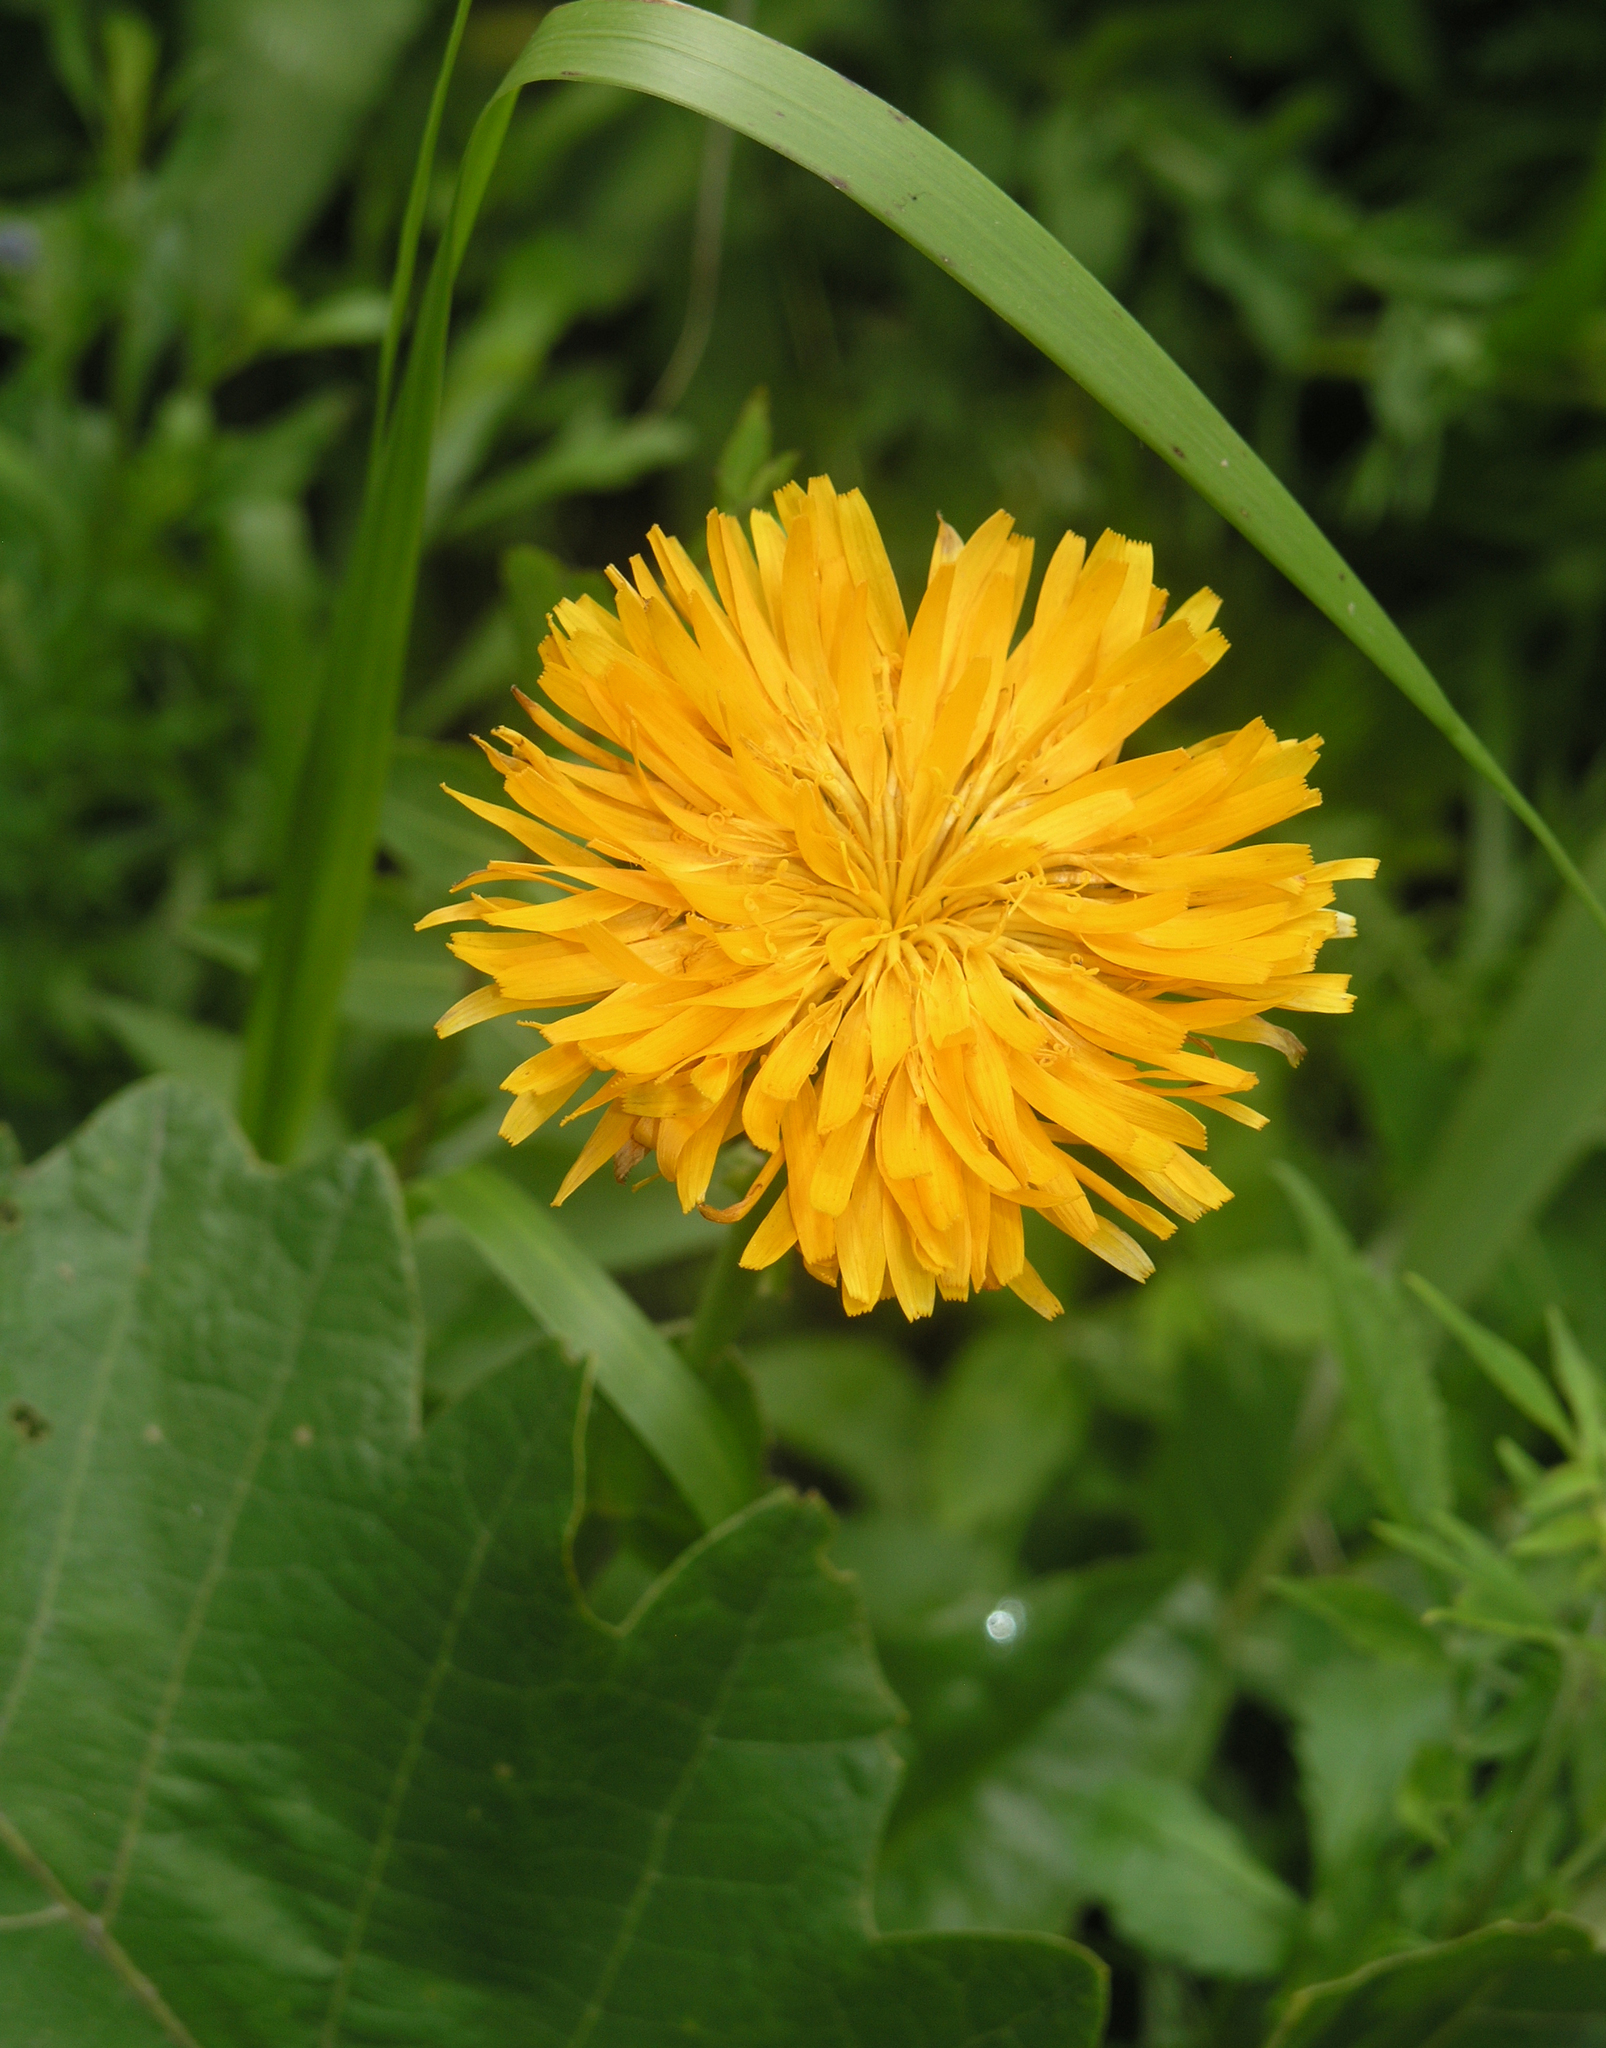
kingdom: Plantae
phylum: Tracheophyta
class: Magnoliopsida
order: Asterales
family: Asteraceae
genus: Trommsdorffia
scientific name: Trommsdorffia ciliata
